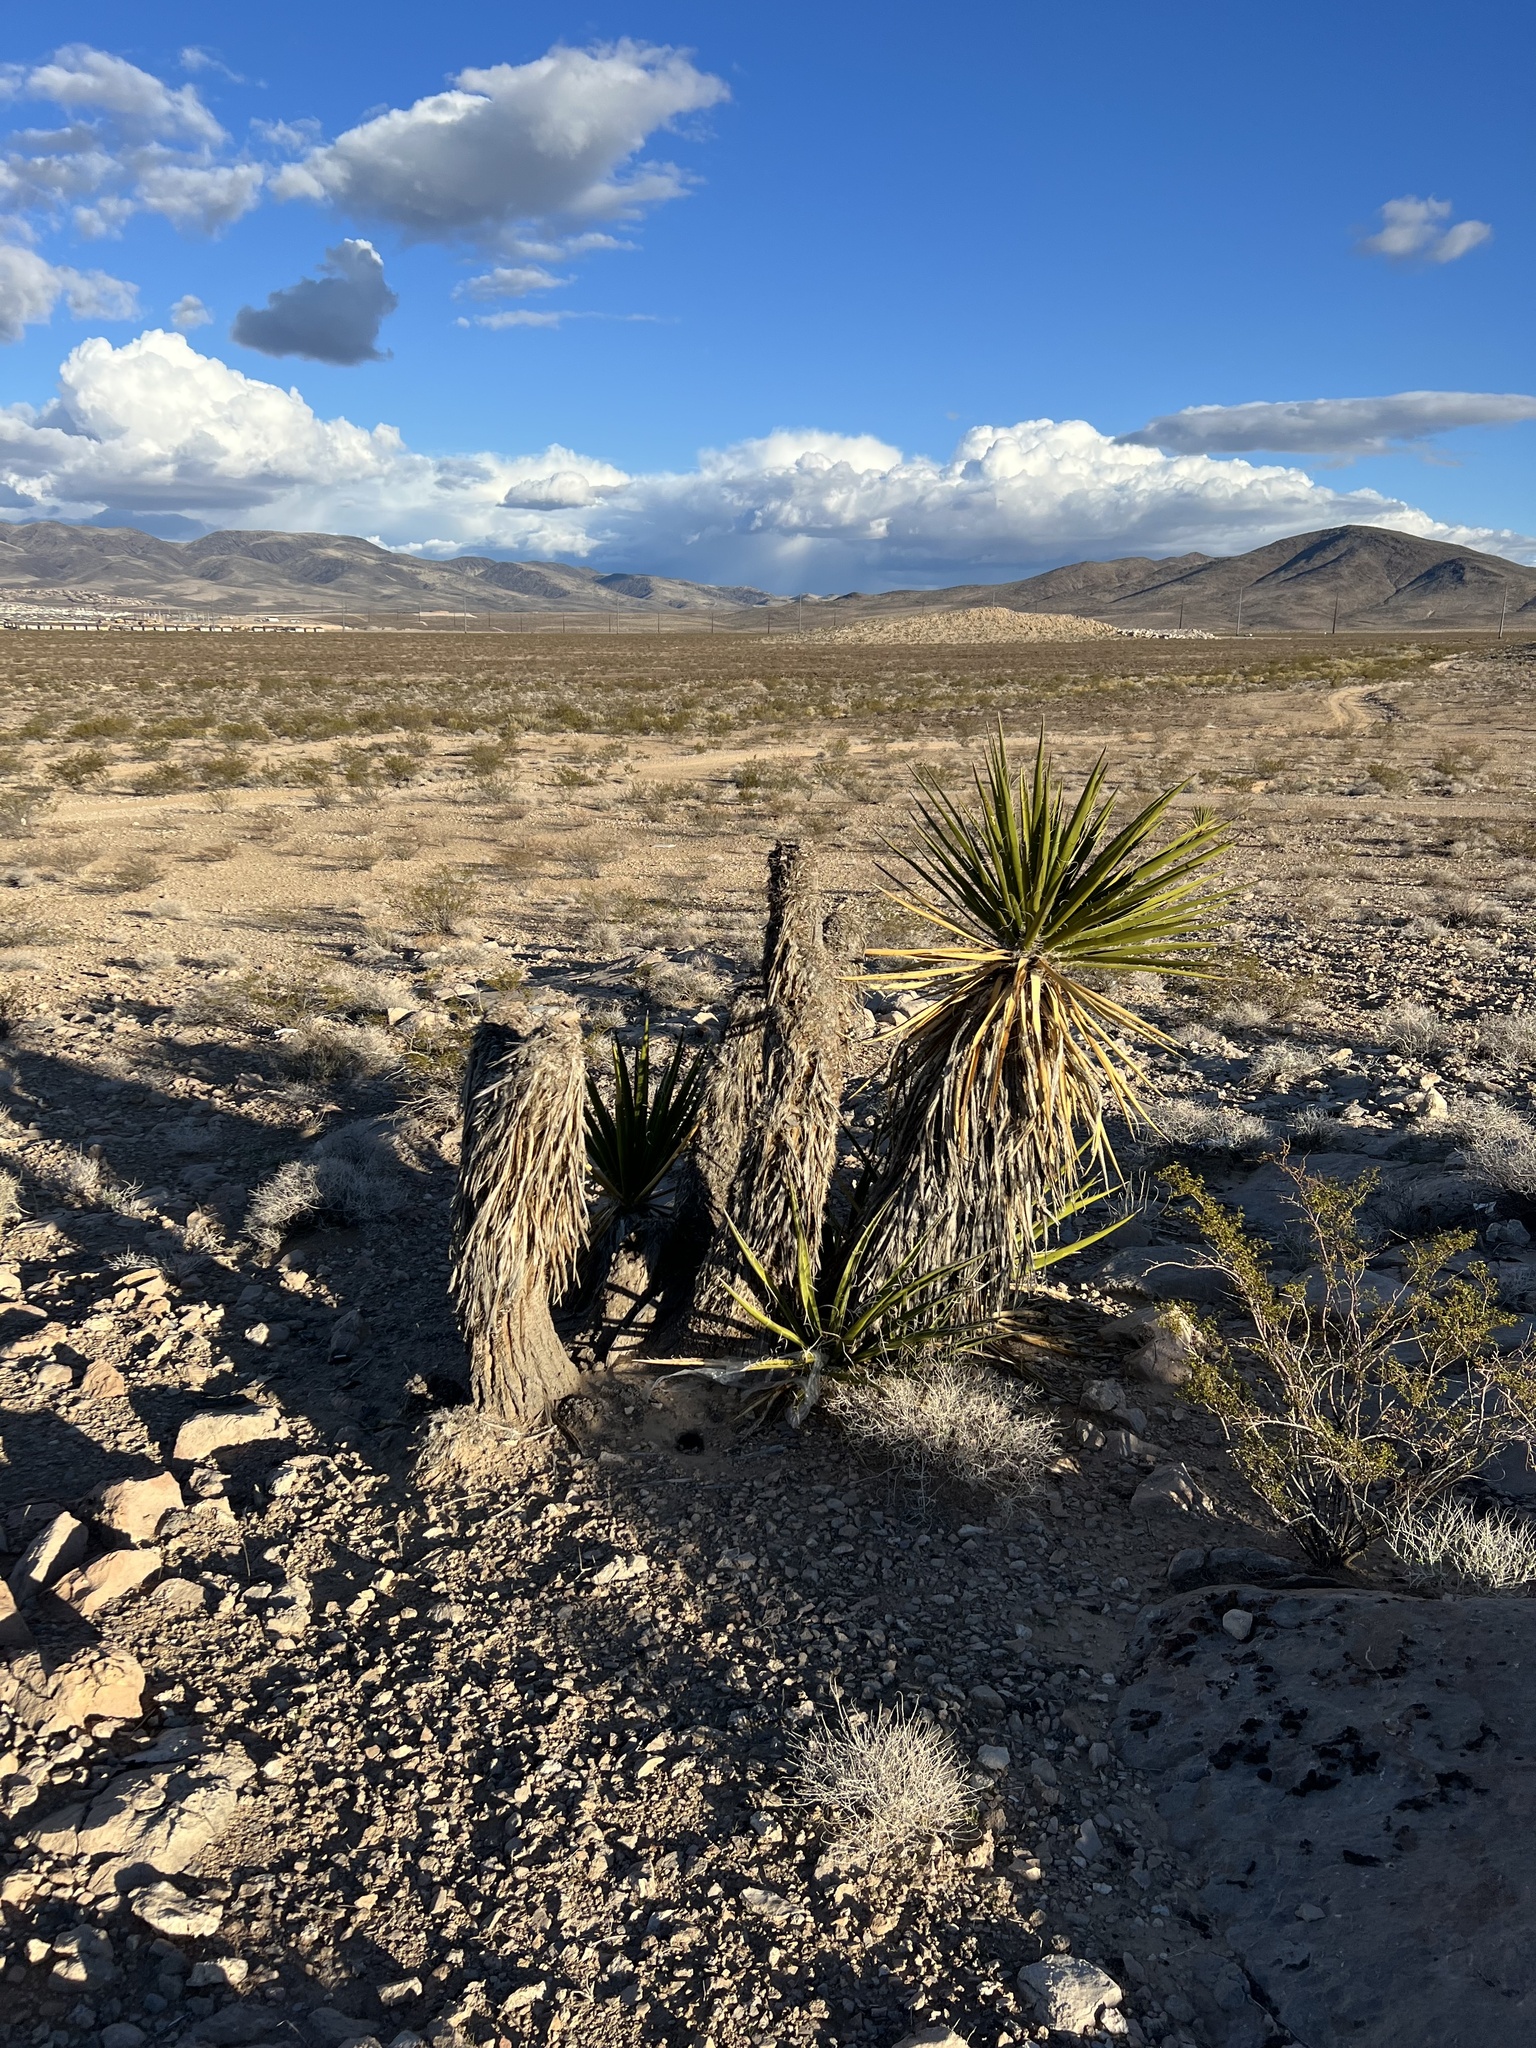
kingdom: Plantae
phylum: Tracheophyta
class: Liliopsida
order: Asparagales
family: Asparagaceae
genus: Yucca
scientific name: Yucca schidigera
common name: Mojave yucca
